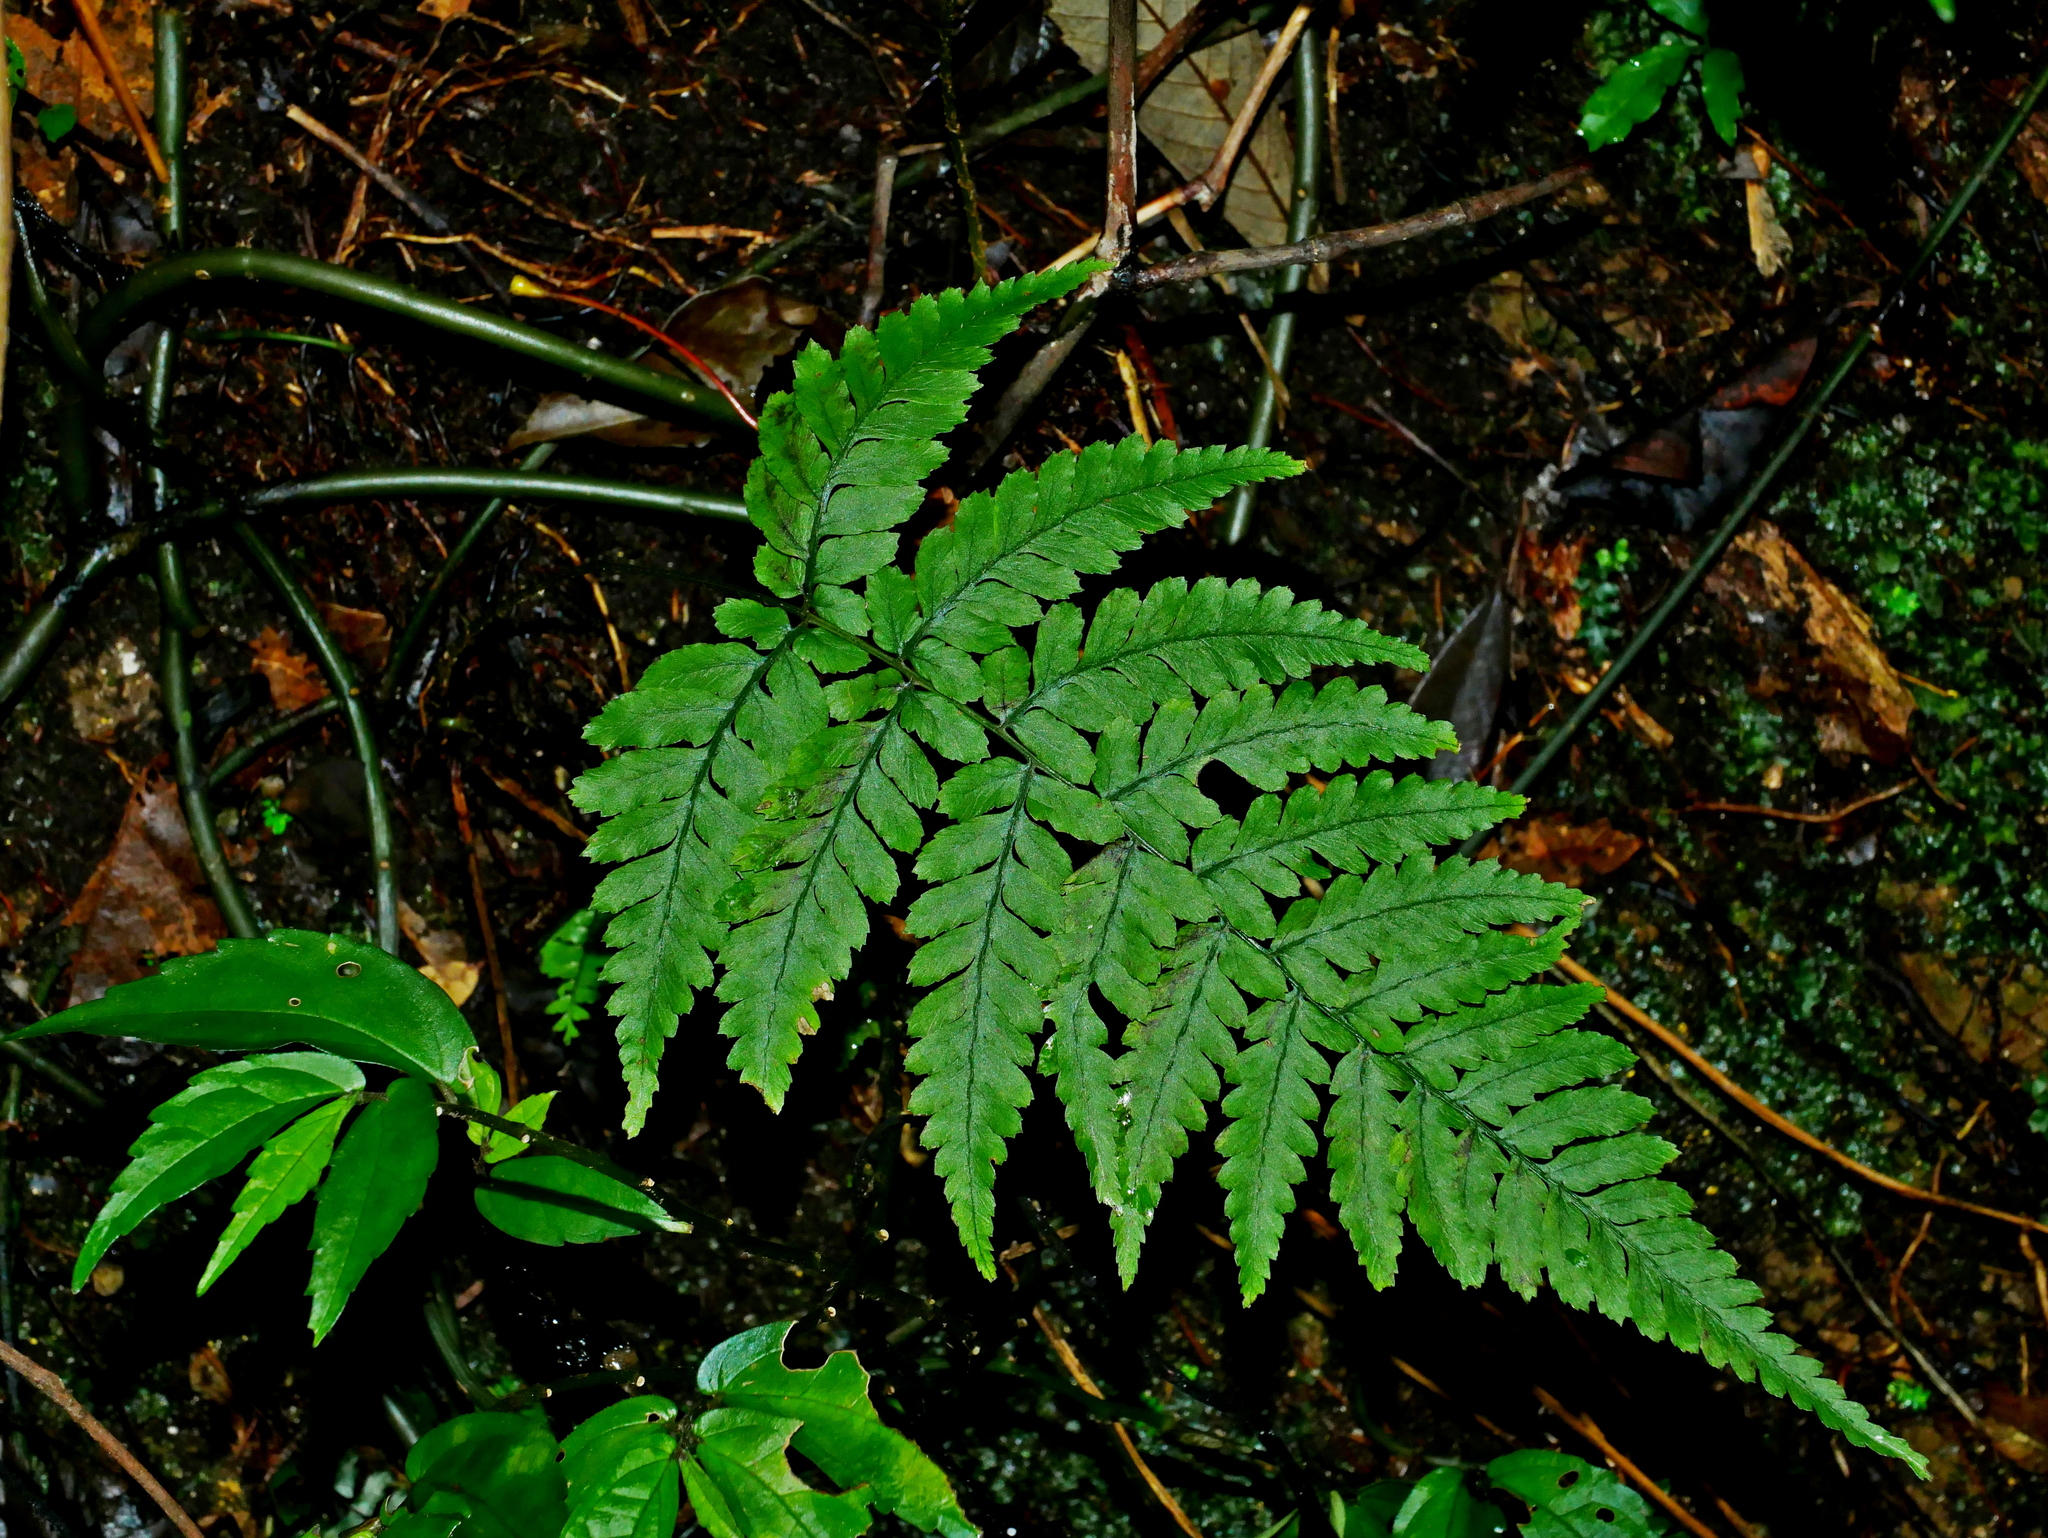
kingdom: Plantae
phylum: Tracheophyta
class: Polypodiopsida
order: Polypodiales
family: Athyriaceae
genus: Athyrium
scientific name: Athyrium arisanense
